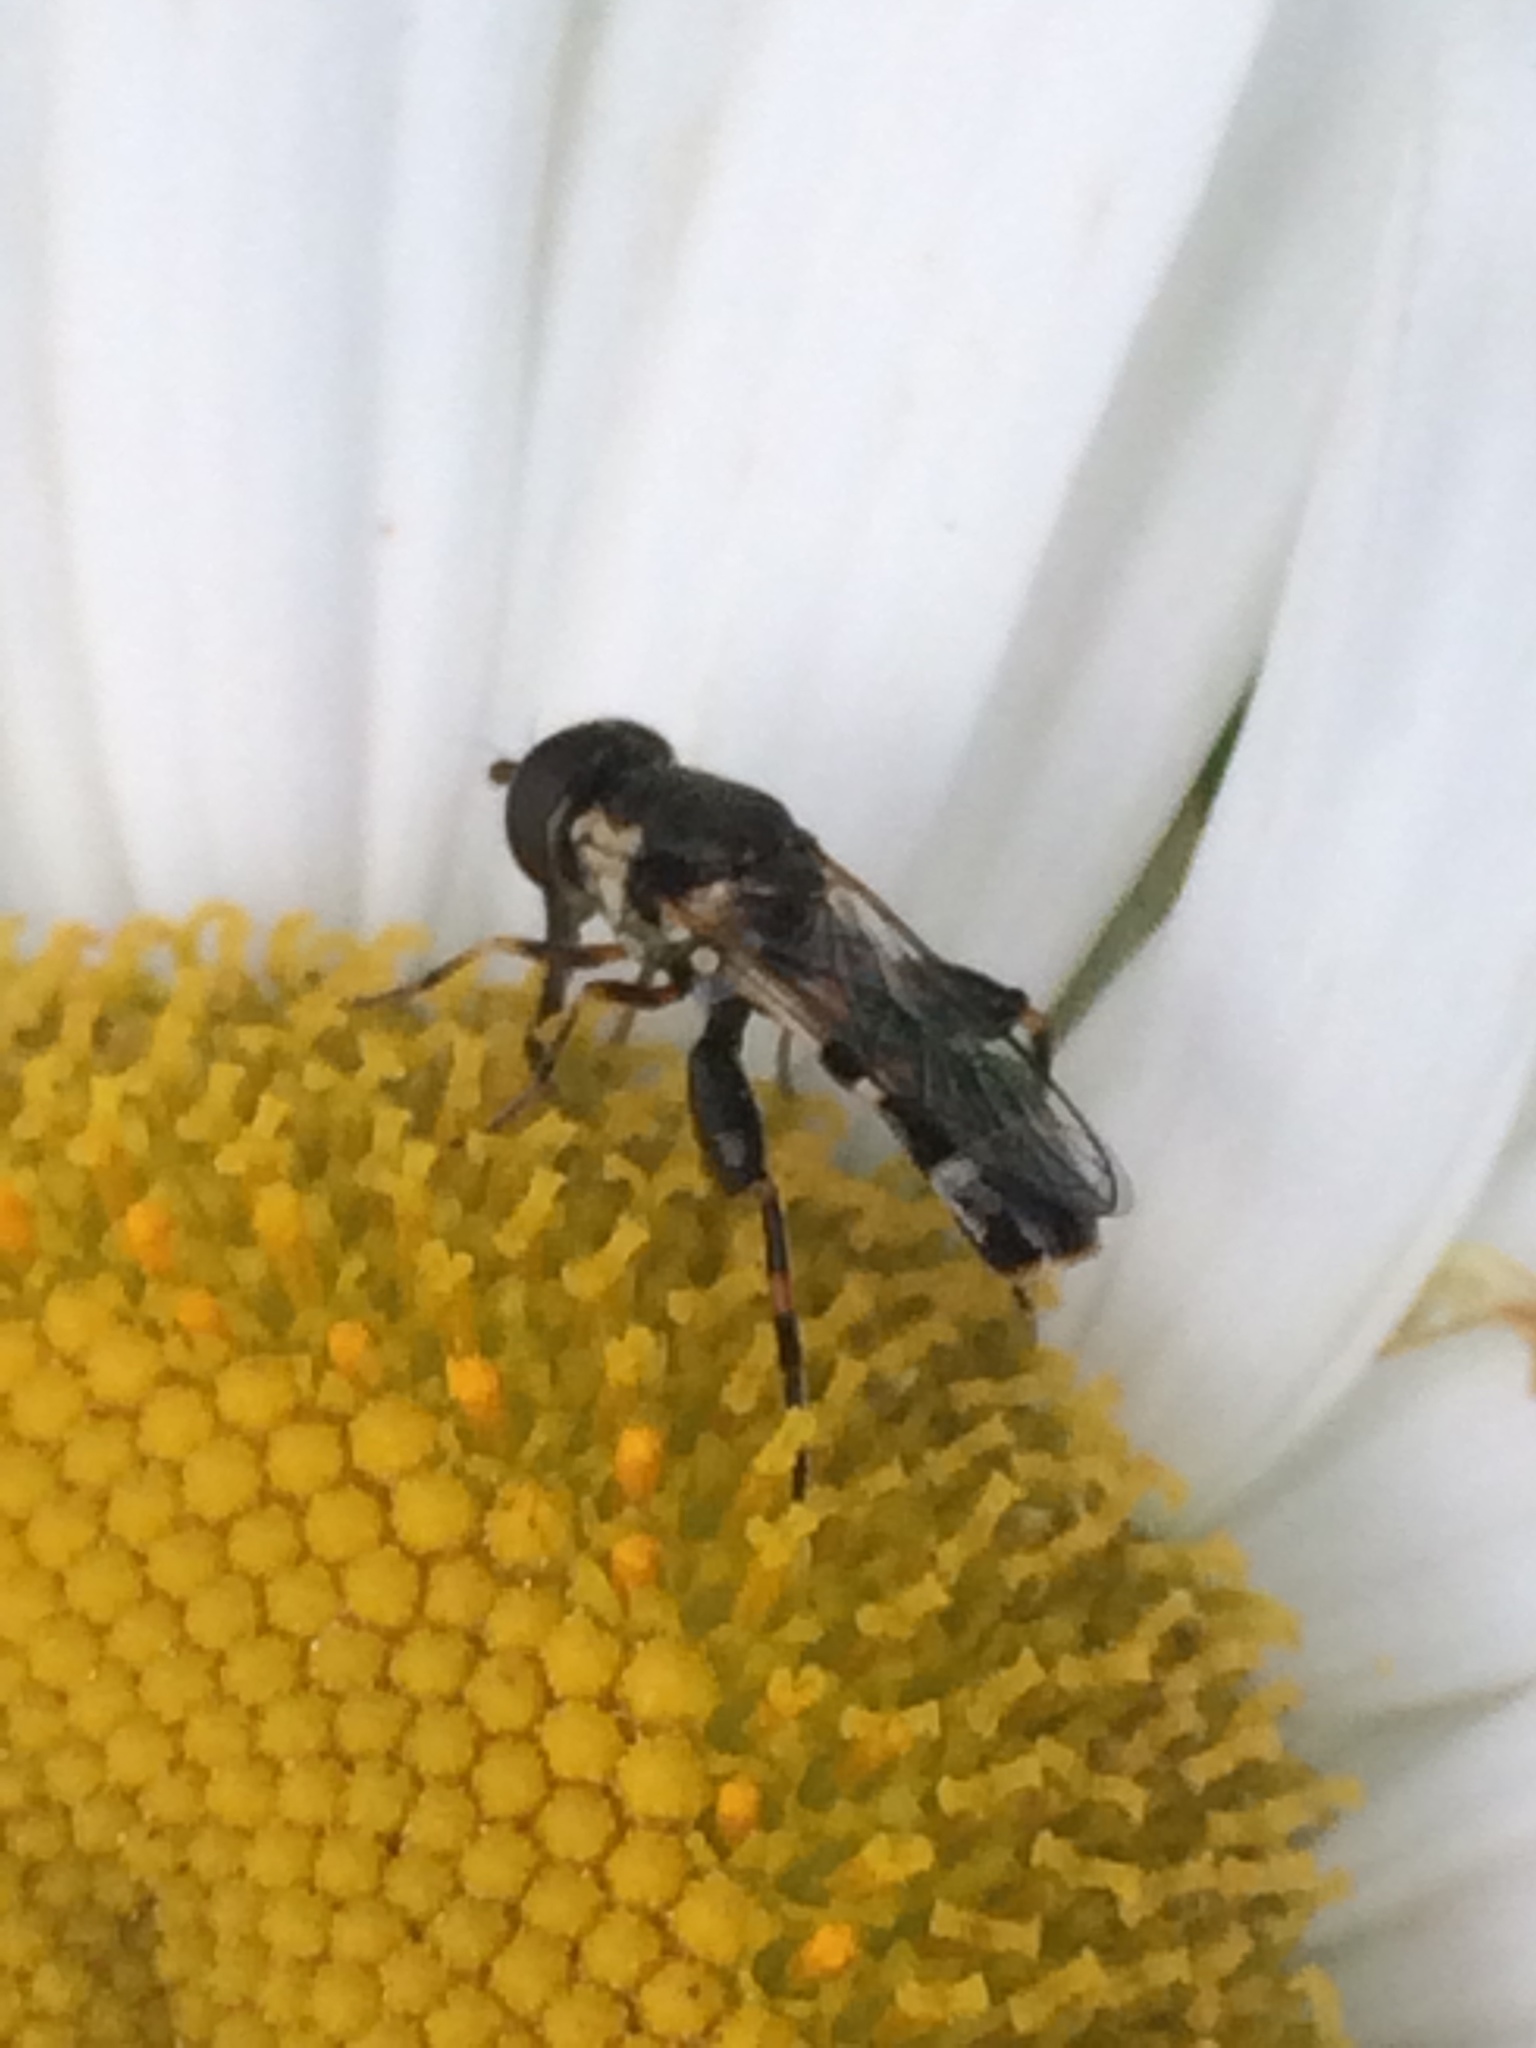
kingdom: Animalia
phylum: Arthropoda
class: Insecta
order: Diptera
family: Syrphidae
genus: Syritta
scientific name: Syritta pipiens
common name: Hover fly
